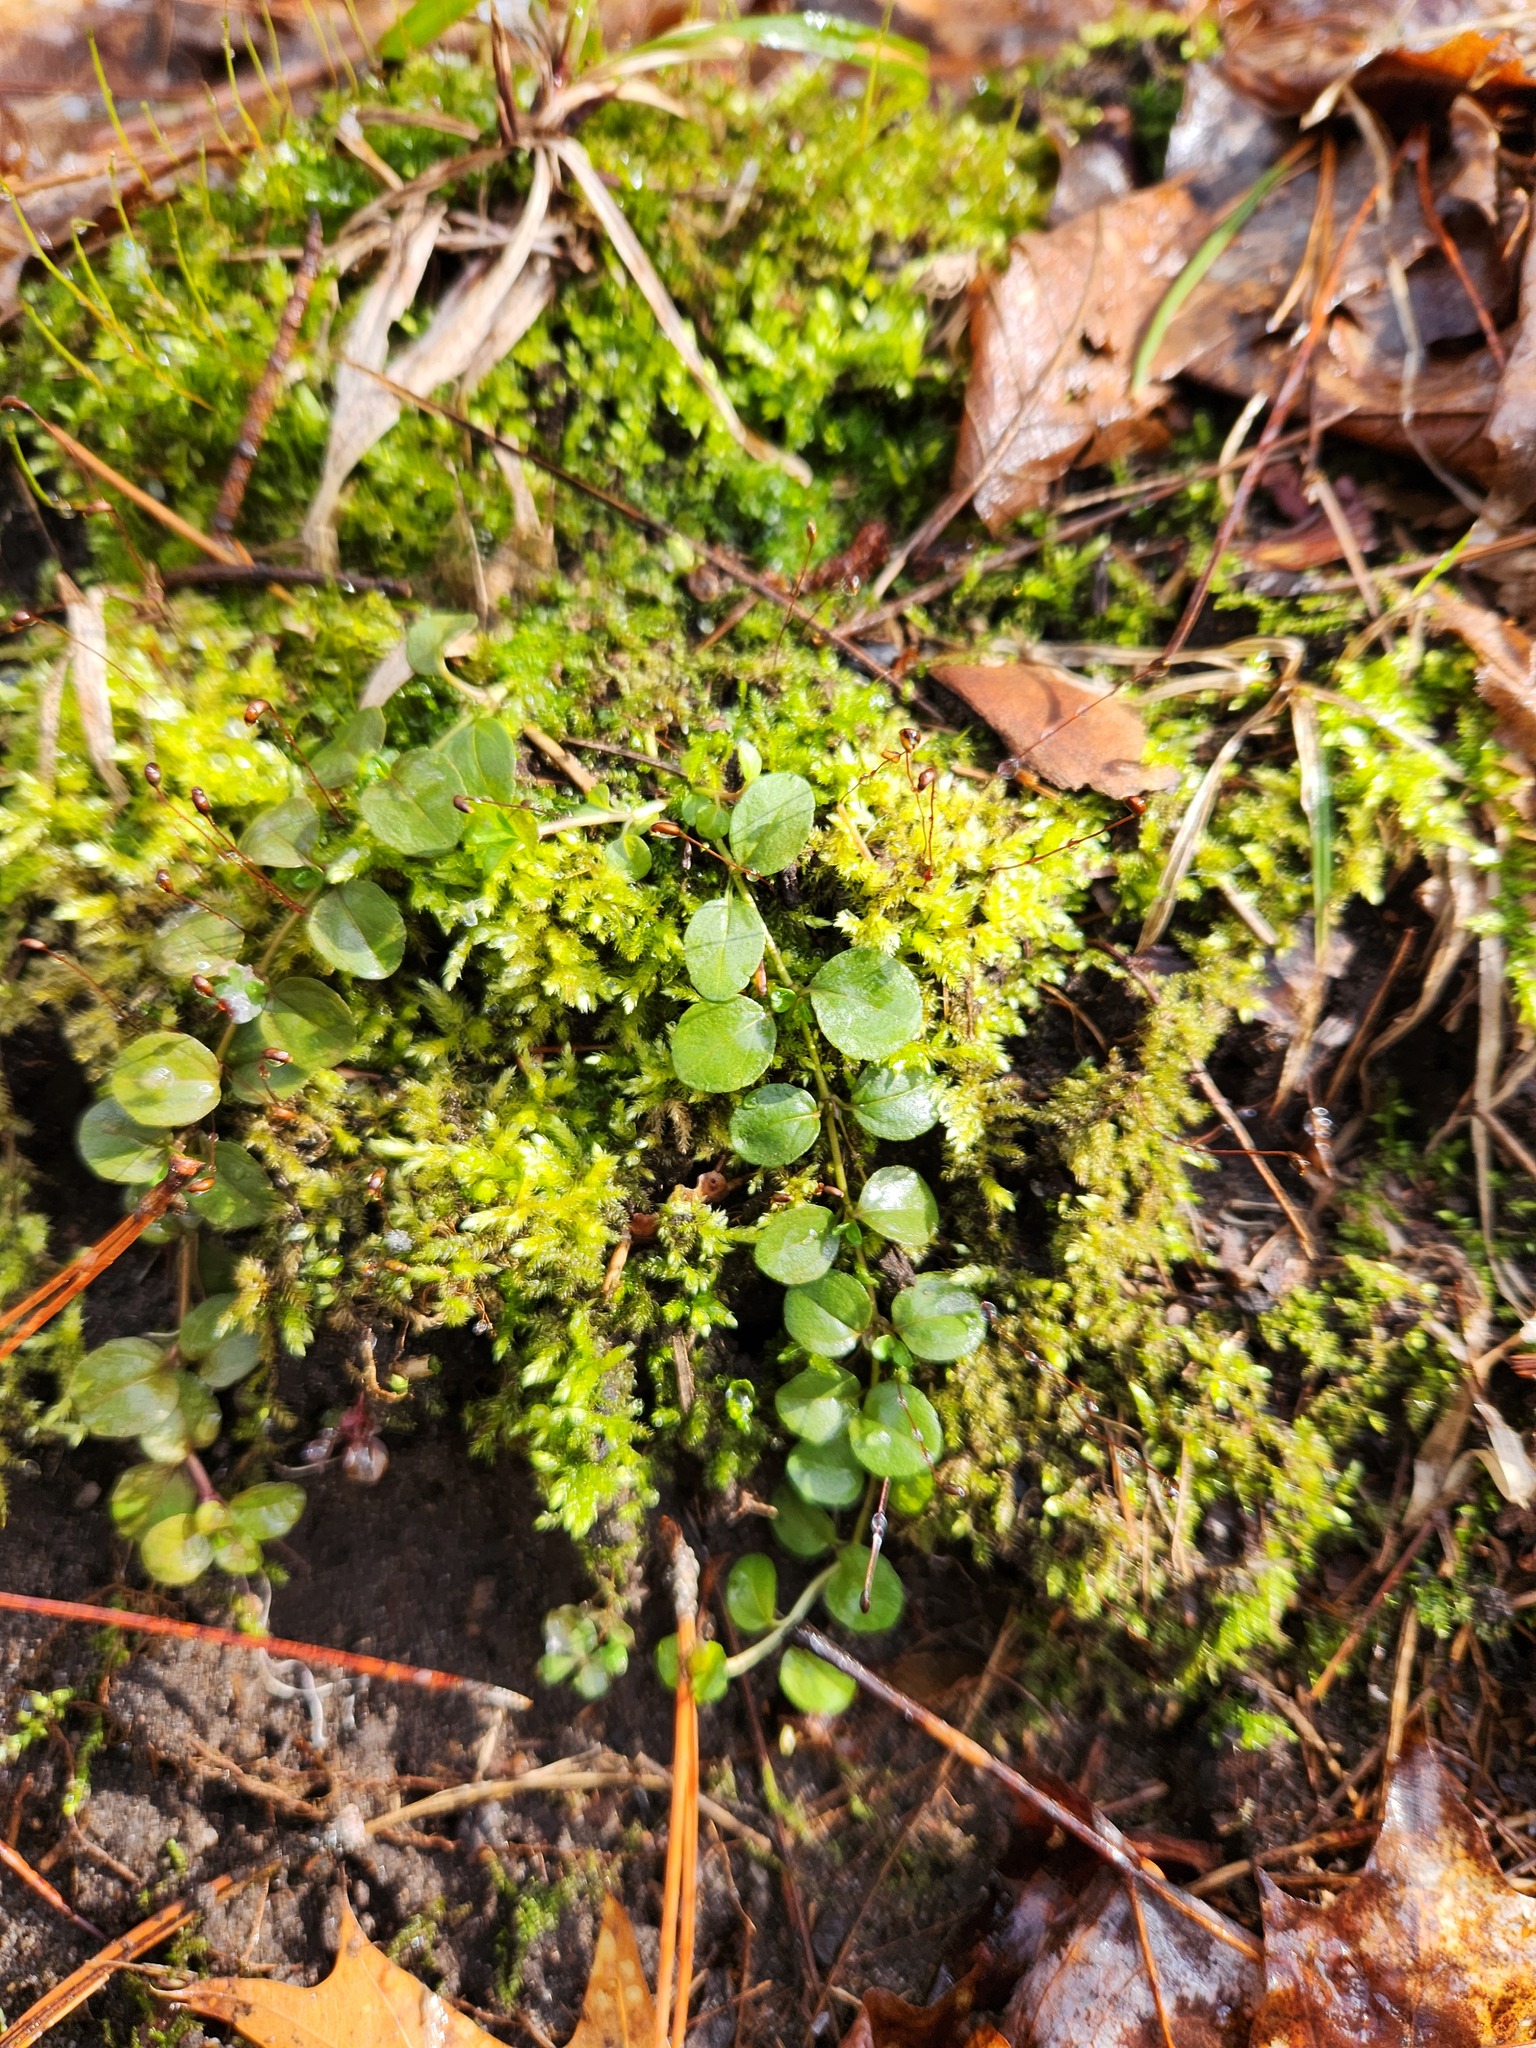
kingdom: Plantae
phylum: Tracheophyta
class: Magnoliopsida
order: Ericales
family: Primulaceae
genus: Lysimachia
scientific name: Lysimachia nummularia
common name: Moneywort
